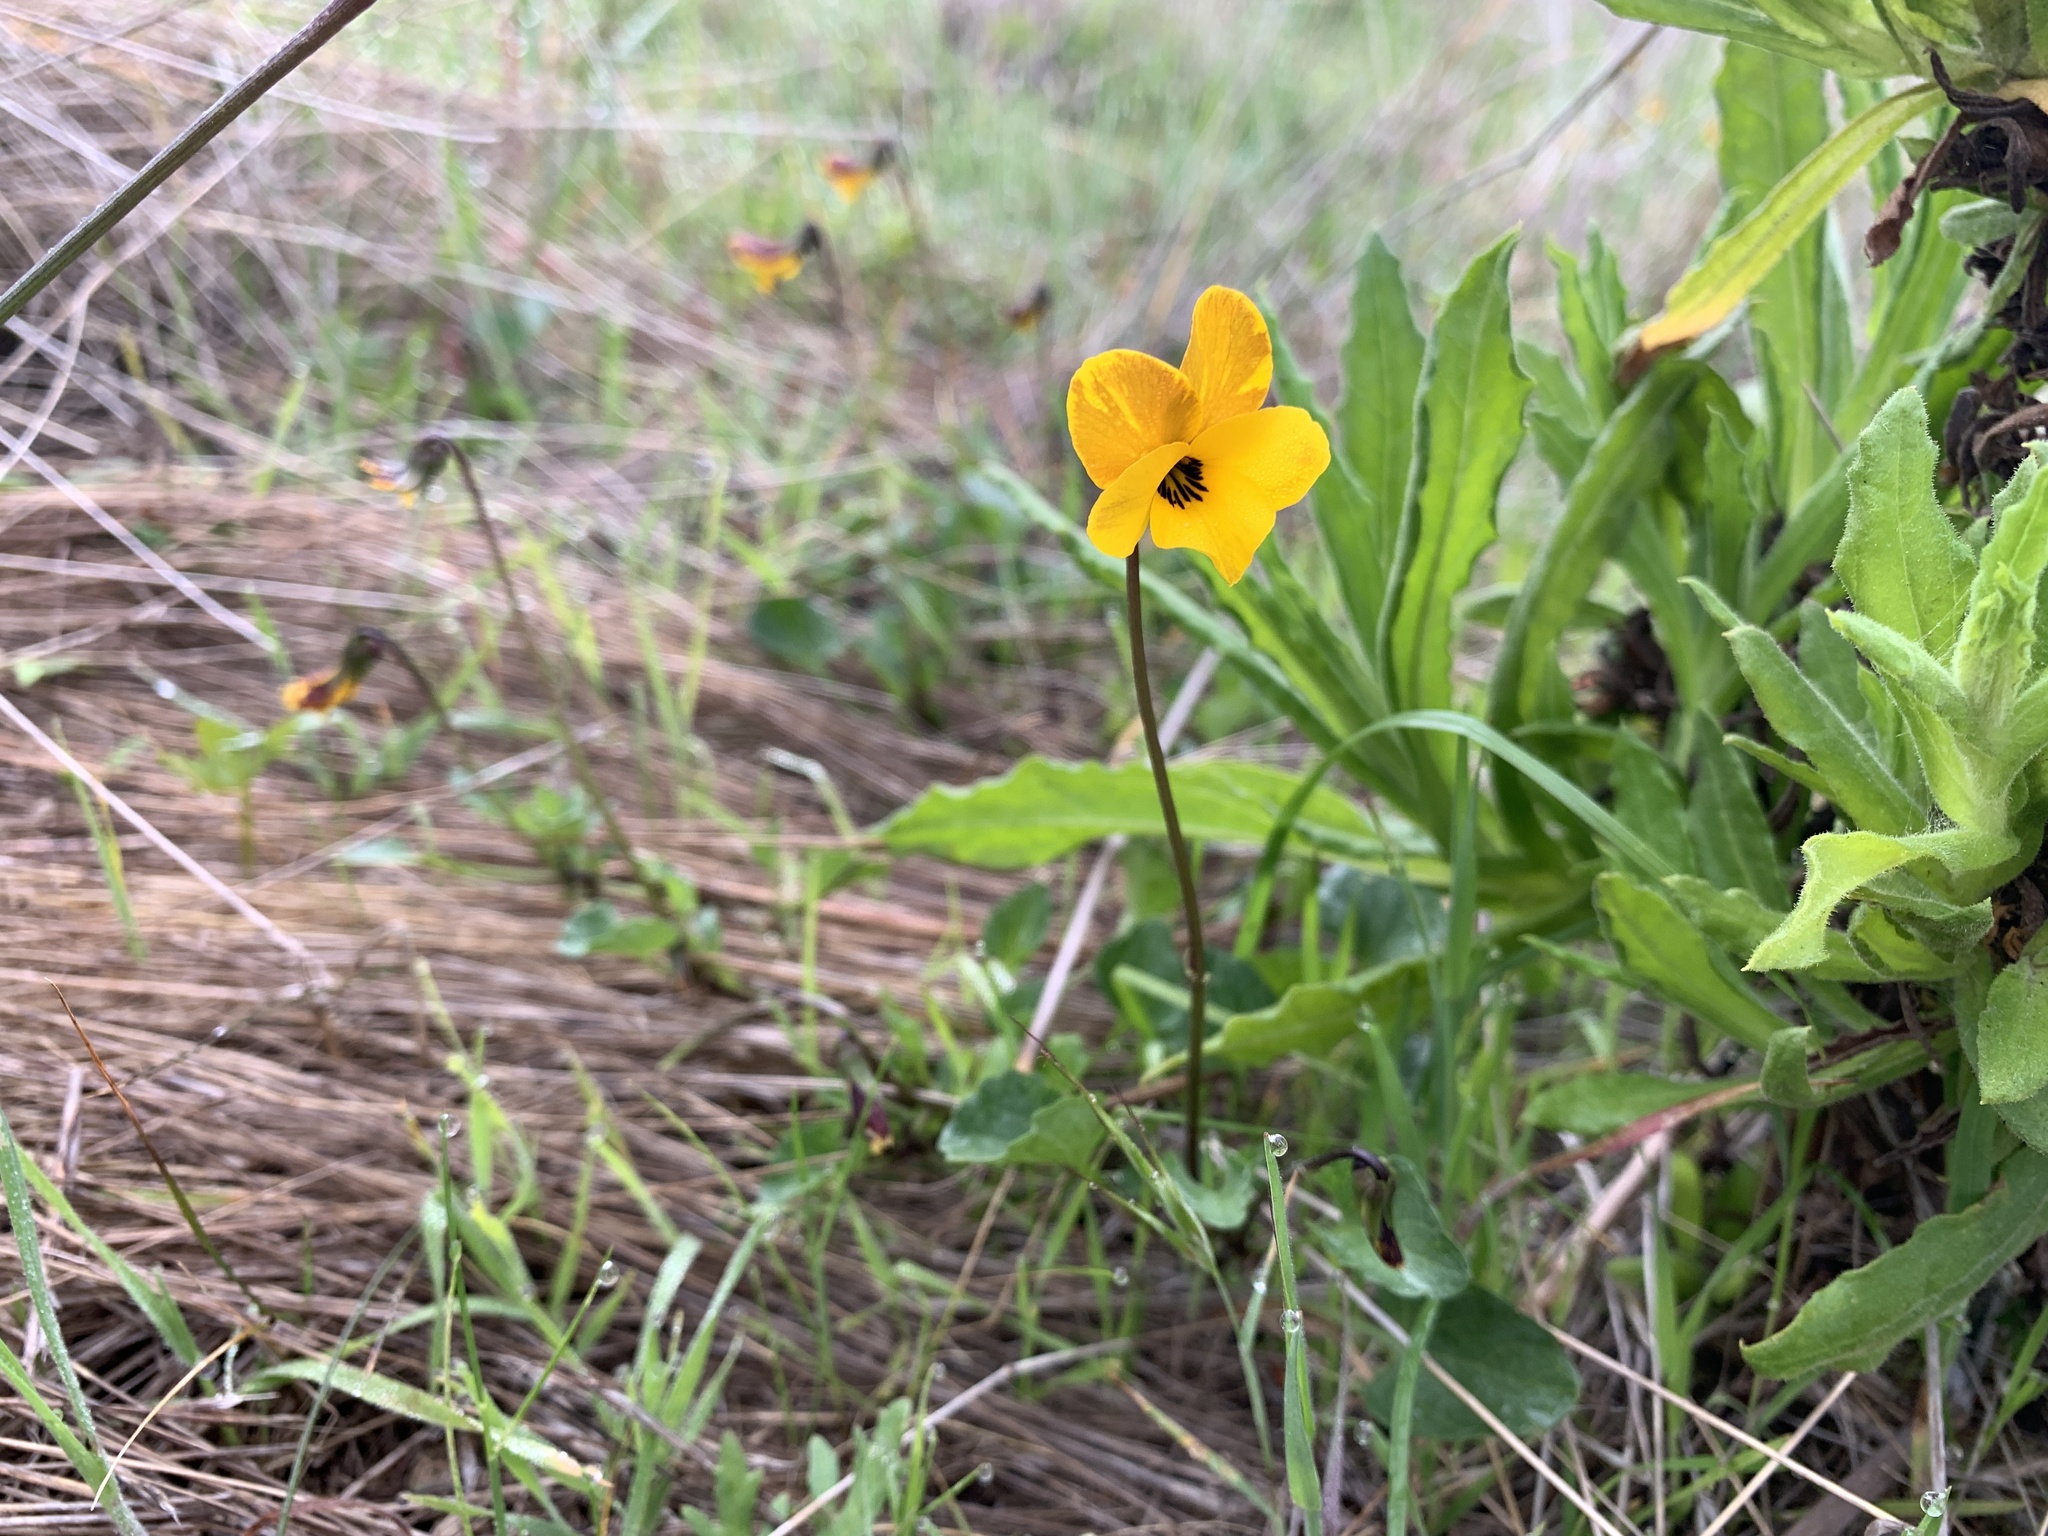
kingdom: Plantae
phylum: Tracheophyta
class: Magnoliopsida
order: Malpighiales
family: Violaceae
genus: Viola
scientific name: Viola pedunculata
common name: California golden violet
